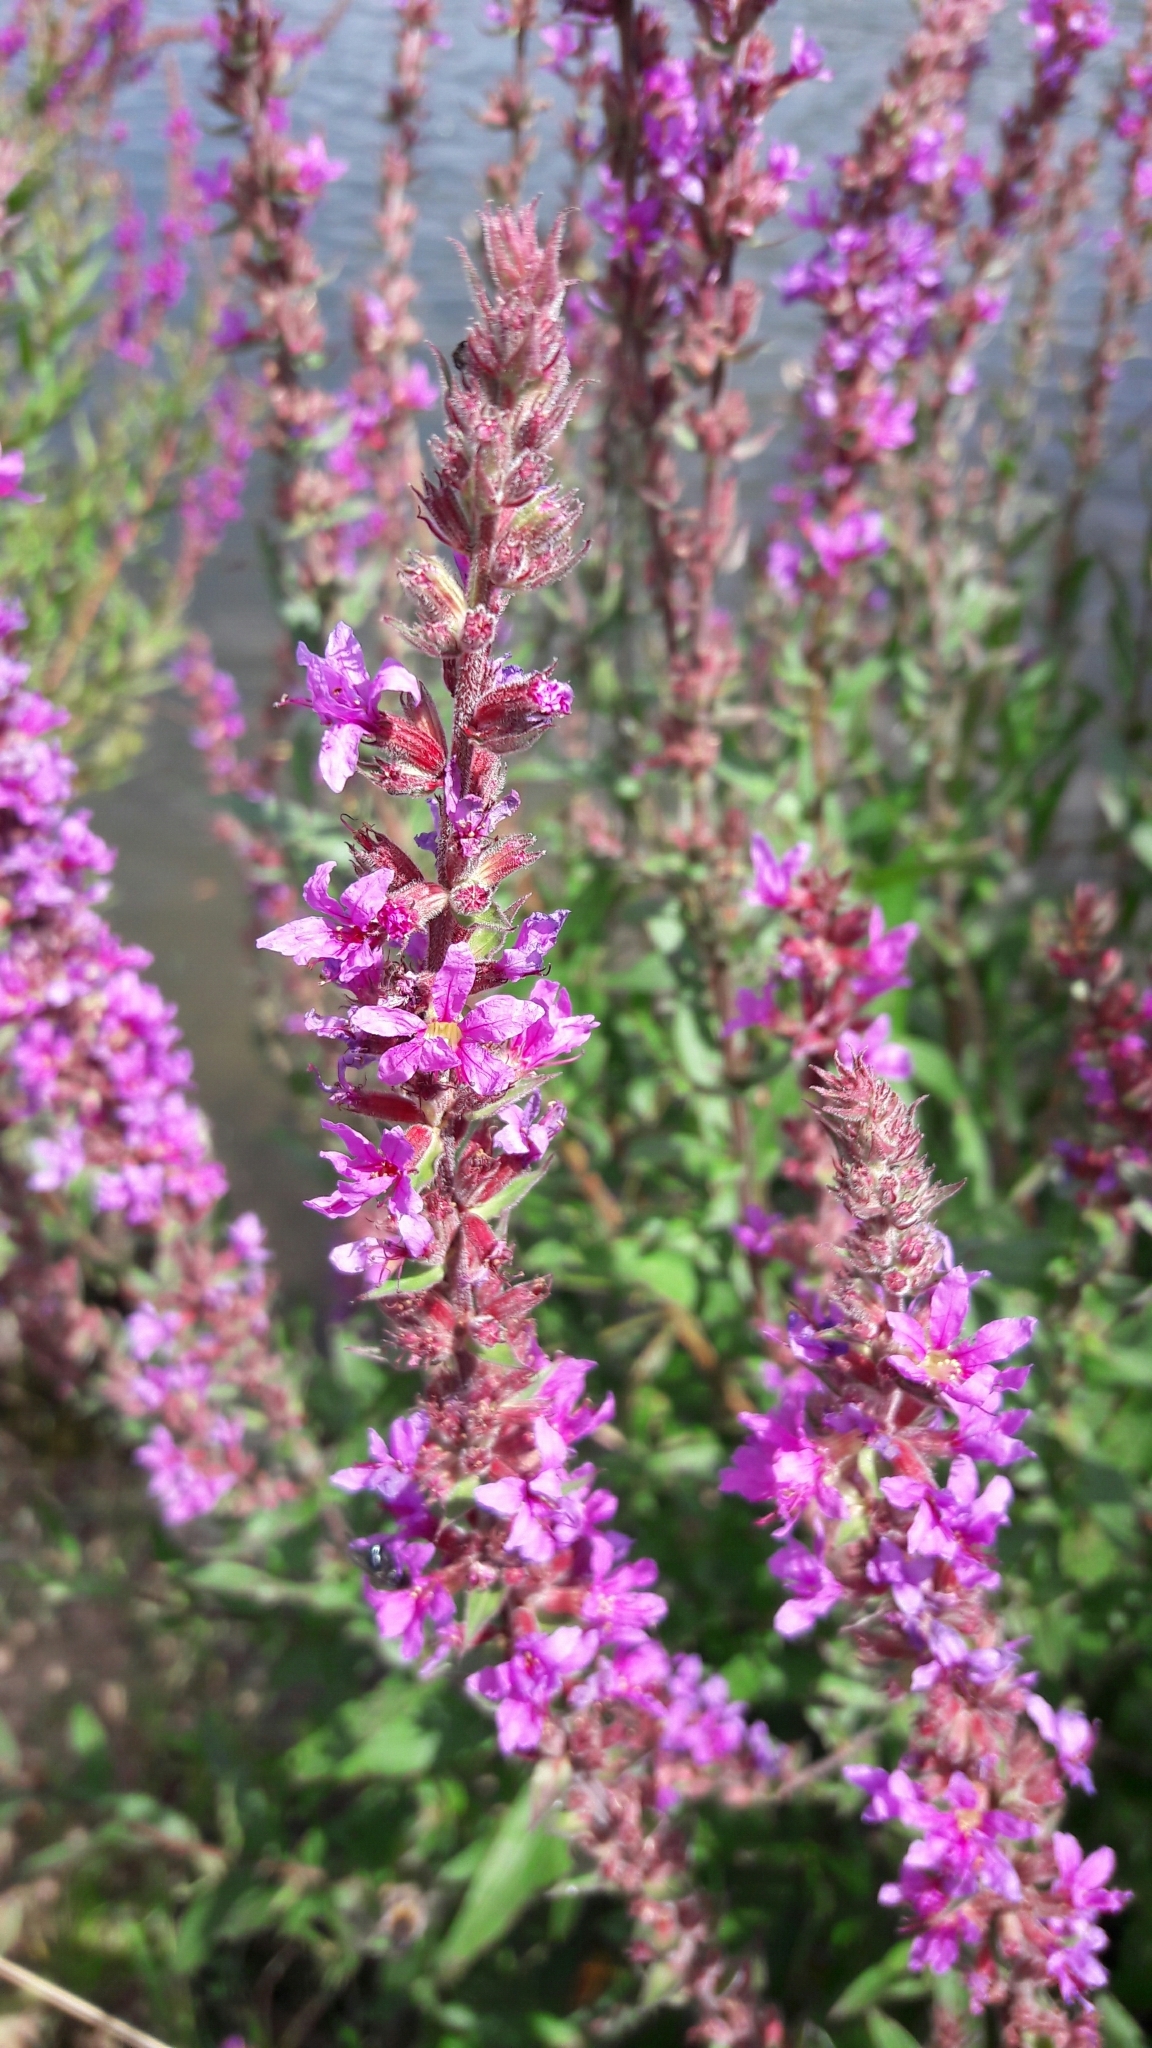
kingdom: Plantae
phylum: Tracheophyta
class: Magnoliopsida
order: Myrtales
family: Lythraceae
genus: Lythrum
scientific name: Lythrum salicaria
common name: Purple loosestrife
